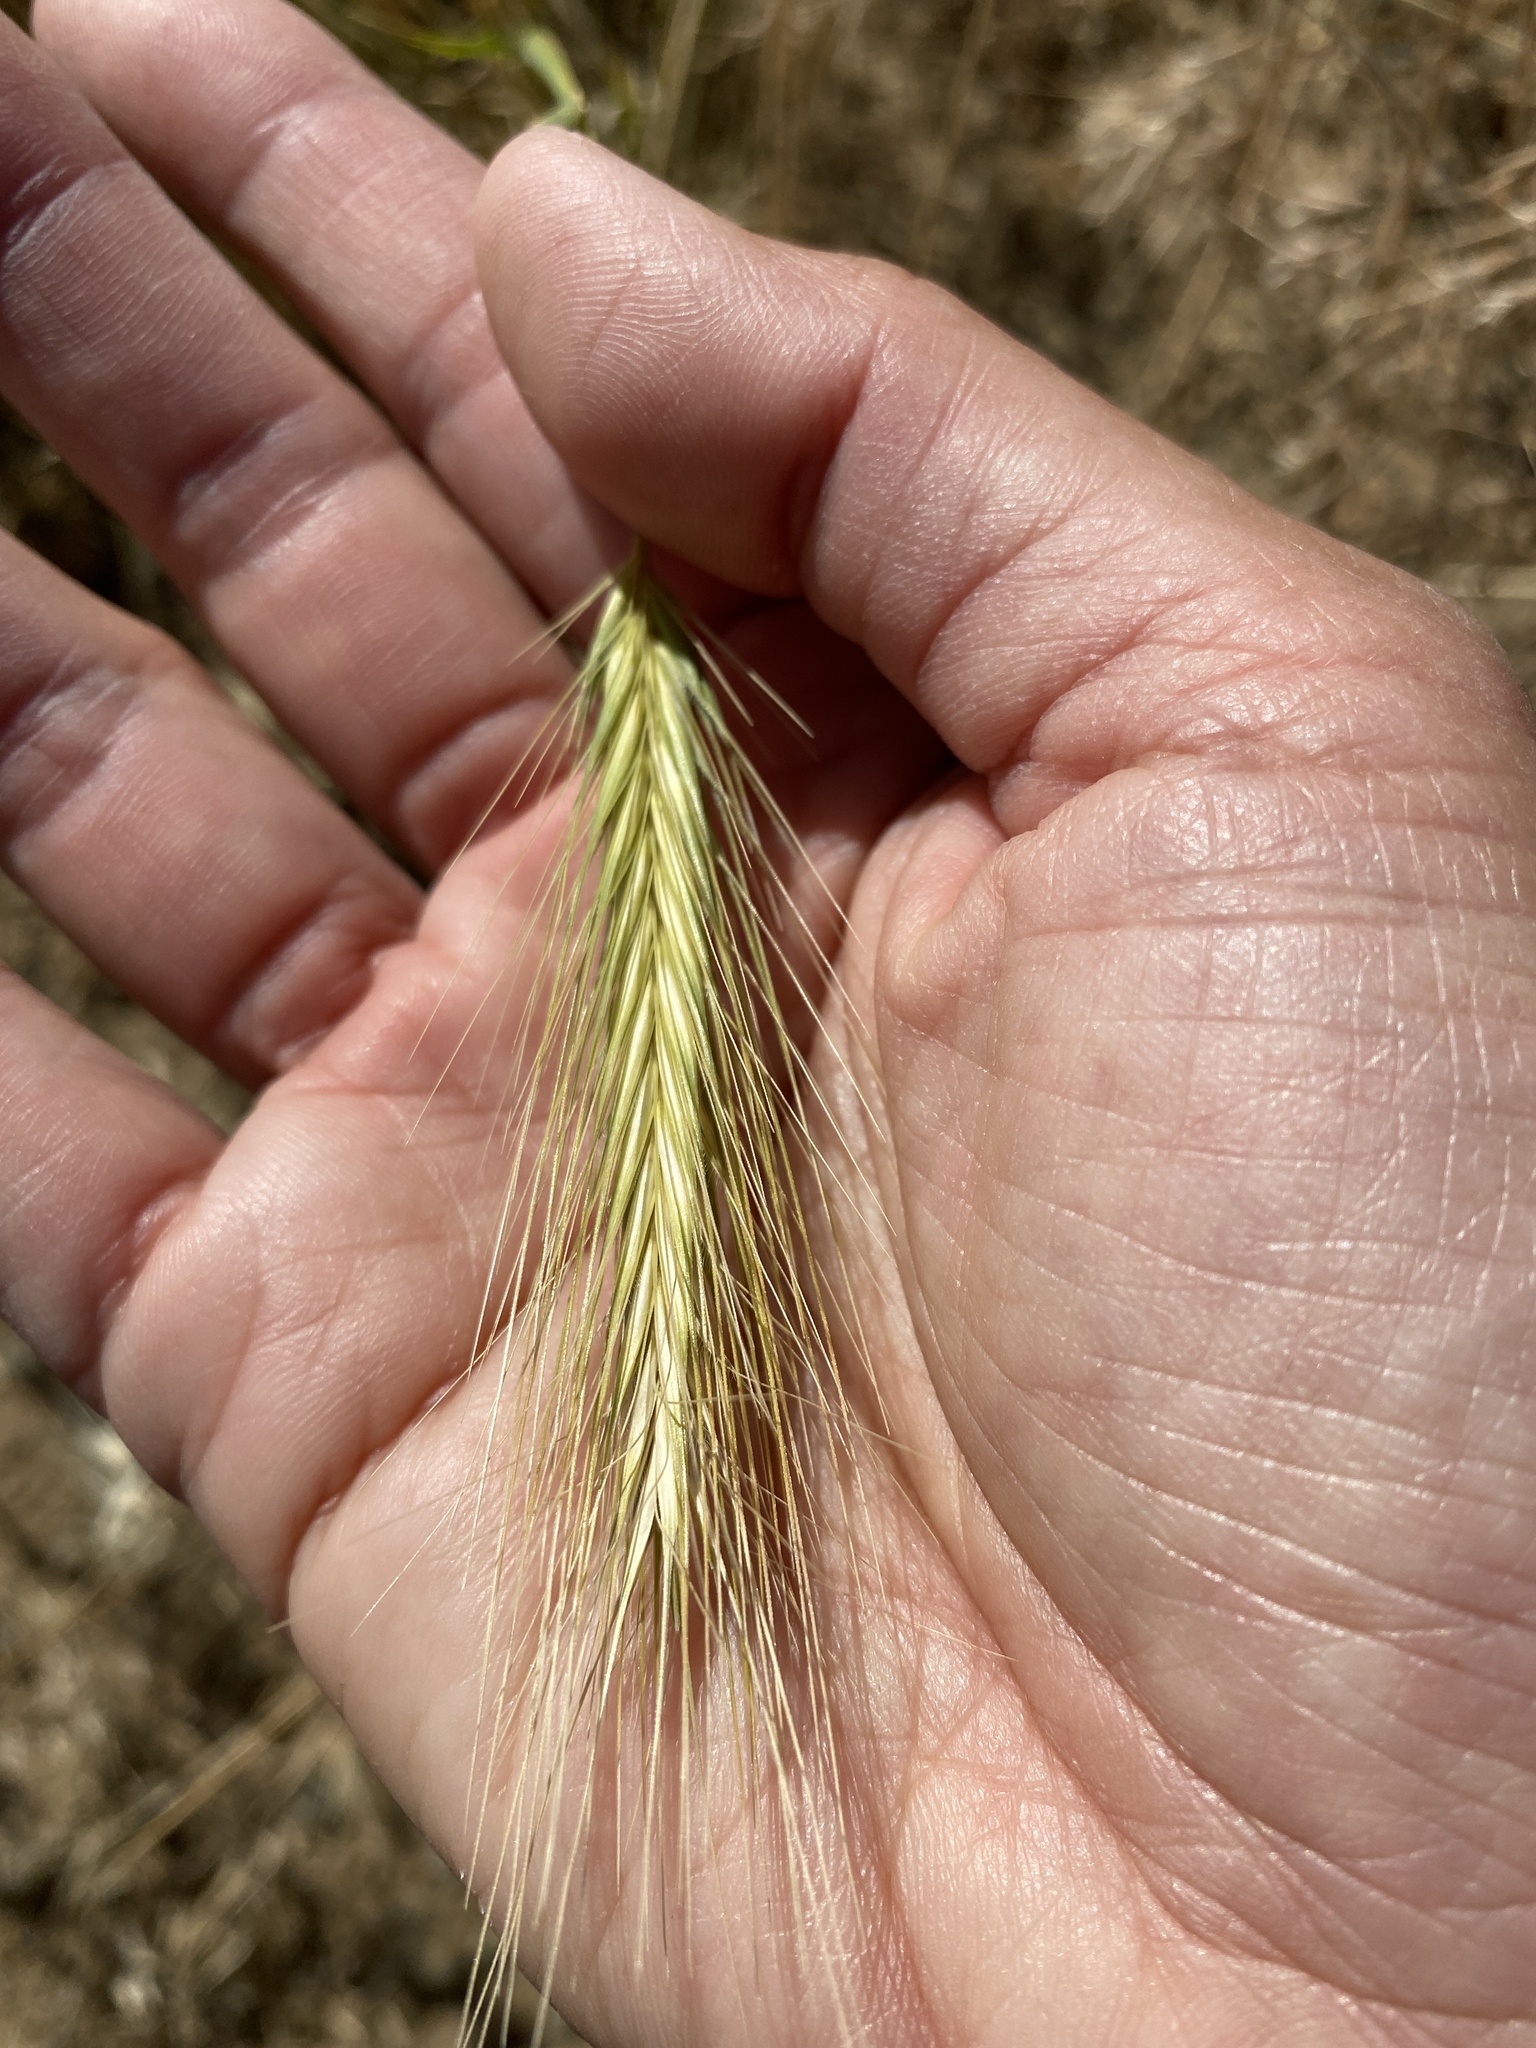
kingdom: Plantae
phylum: Tracheophyta
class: Liliopsida
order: Poales
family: Poaceae
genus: Hordeum
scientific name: Hordeum murinum
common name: Wall barley
